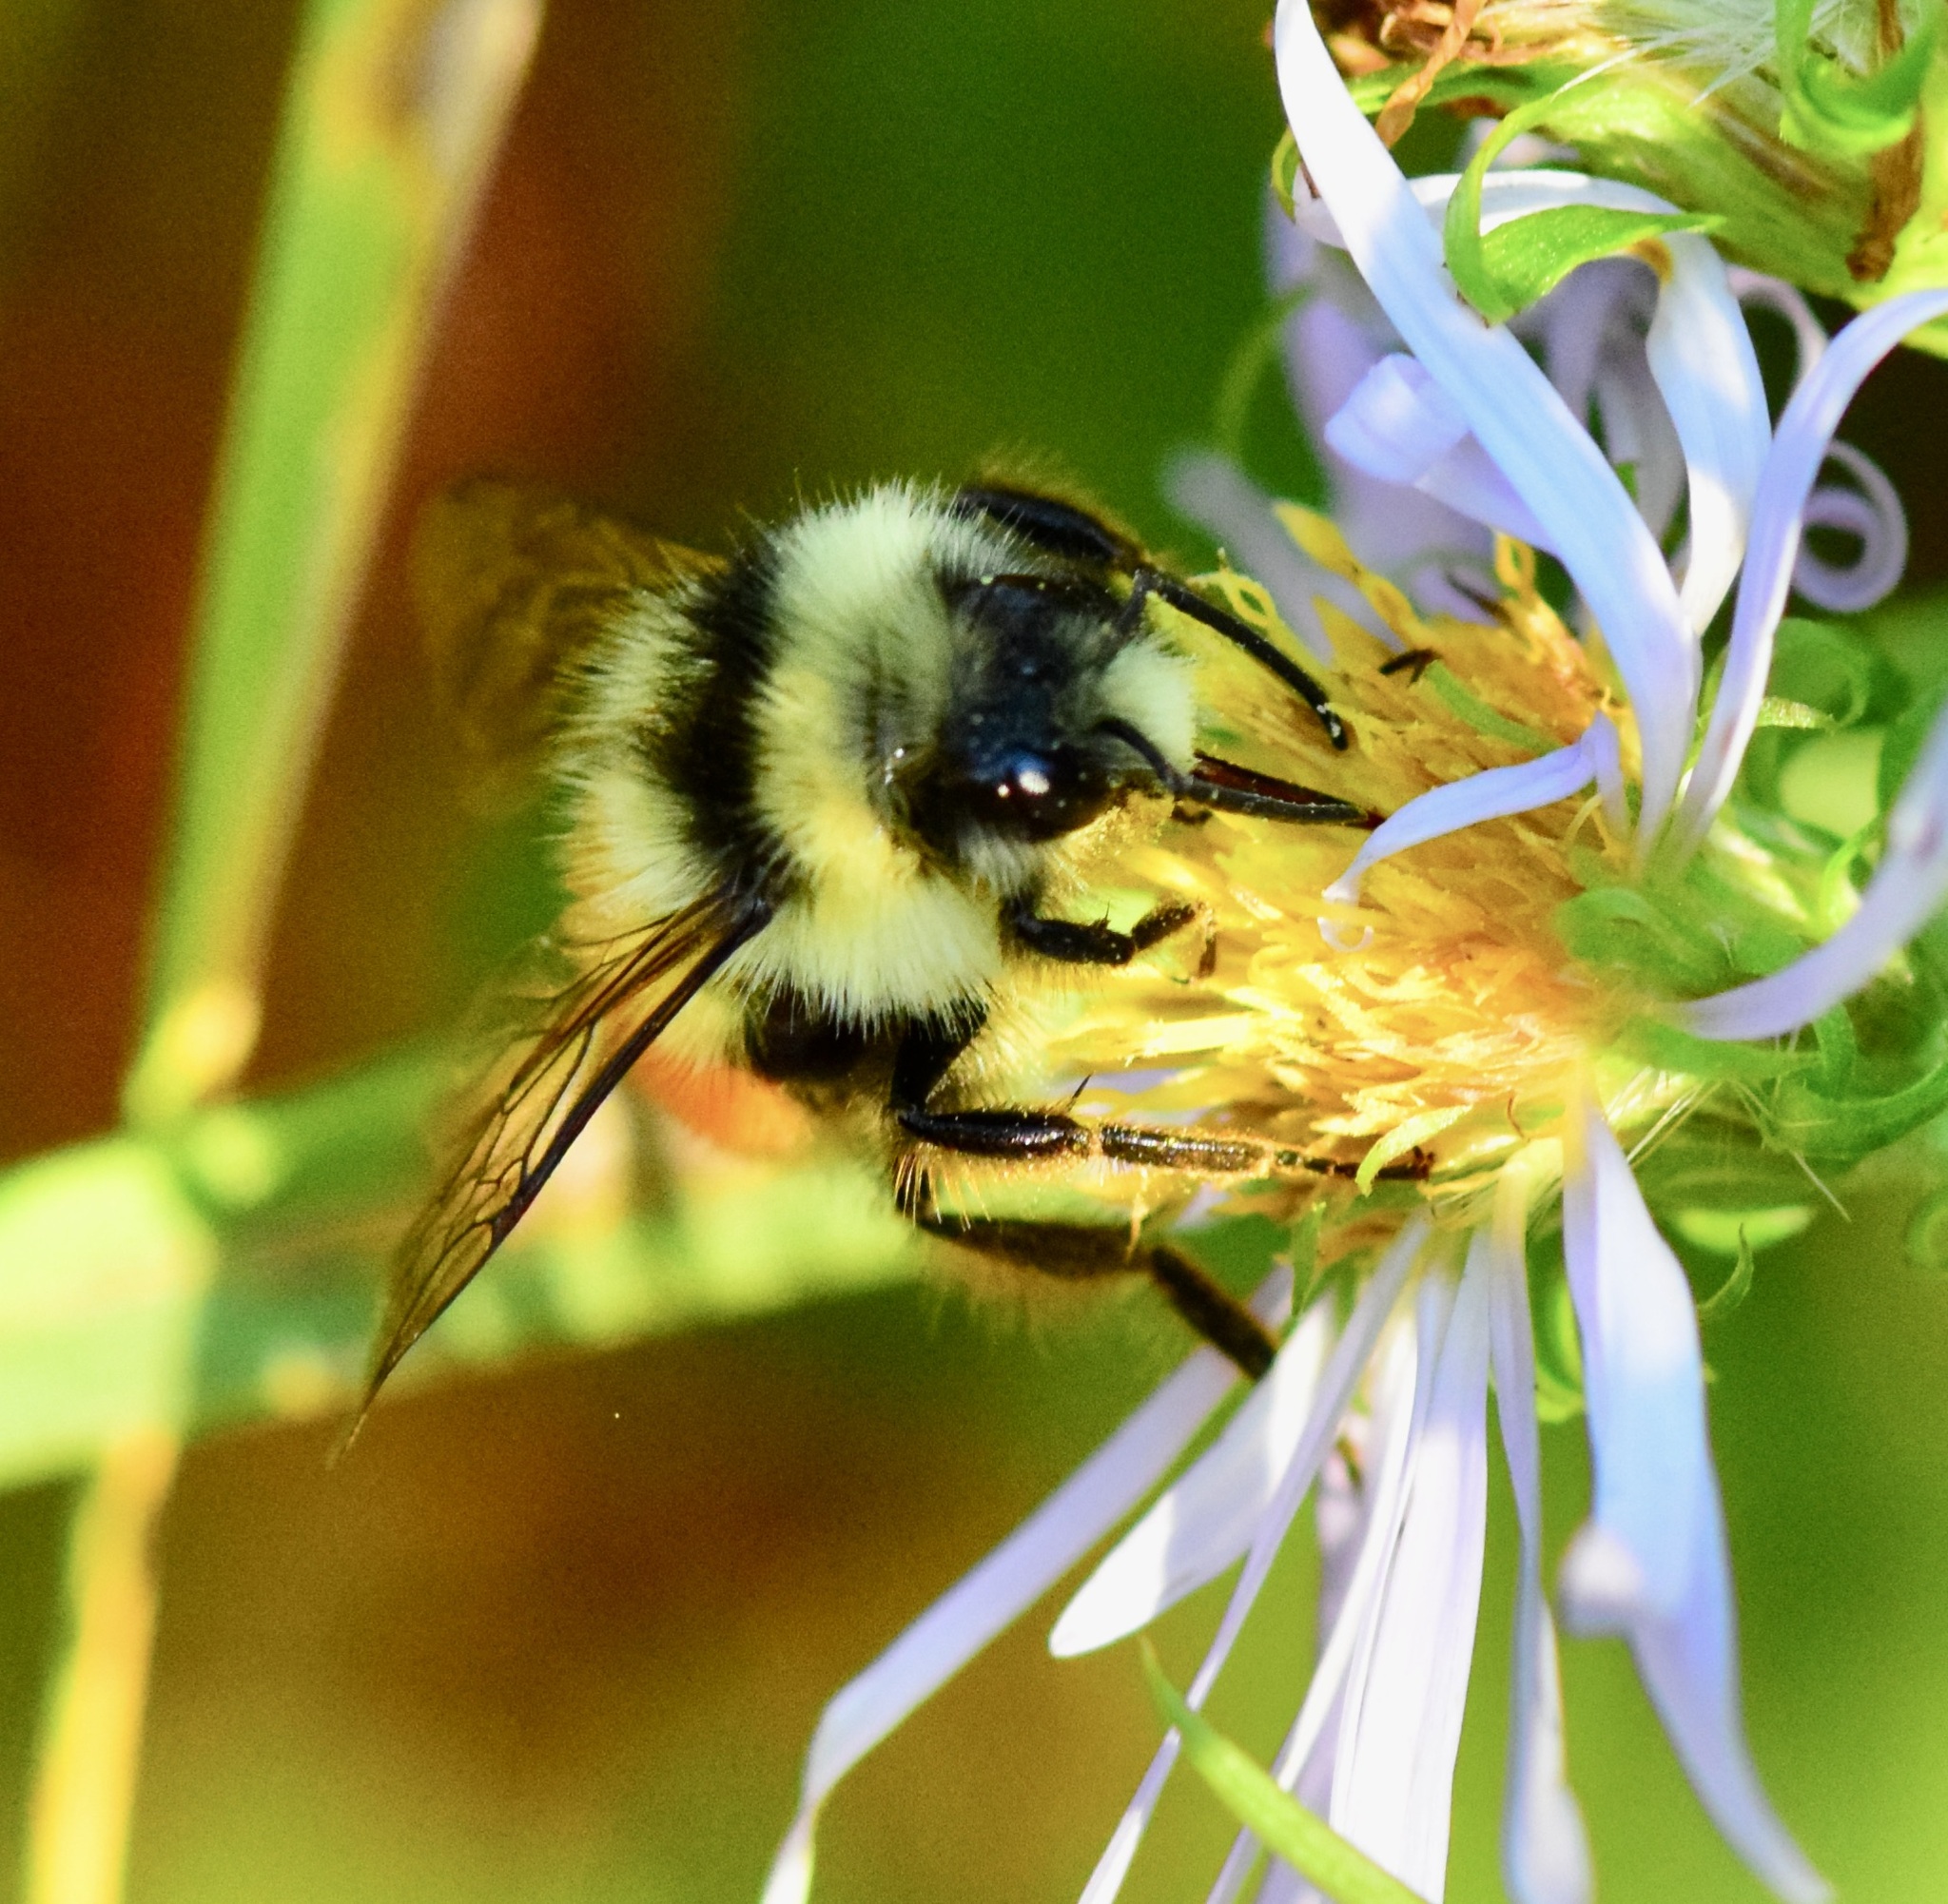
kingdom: Animalia
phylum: Arthropoda
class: Insecta
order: Hymenoptera
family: Apidae
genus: Bombus
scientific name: Bombus ternarius
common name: Tri-colored bumble bee
